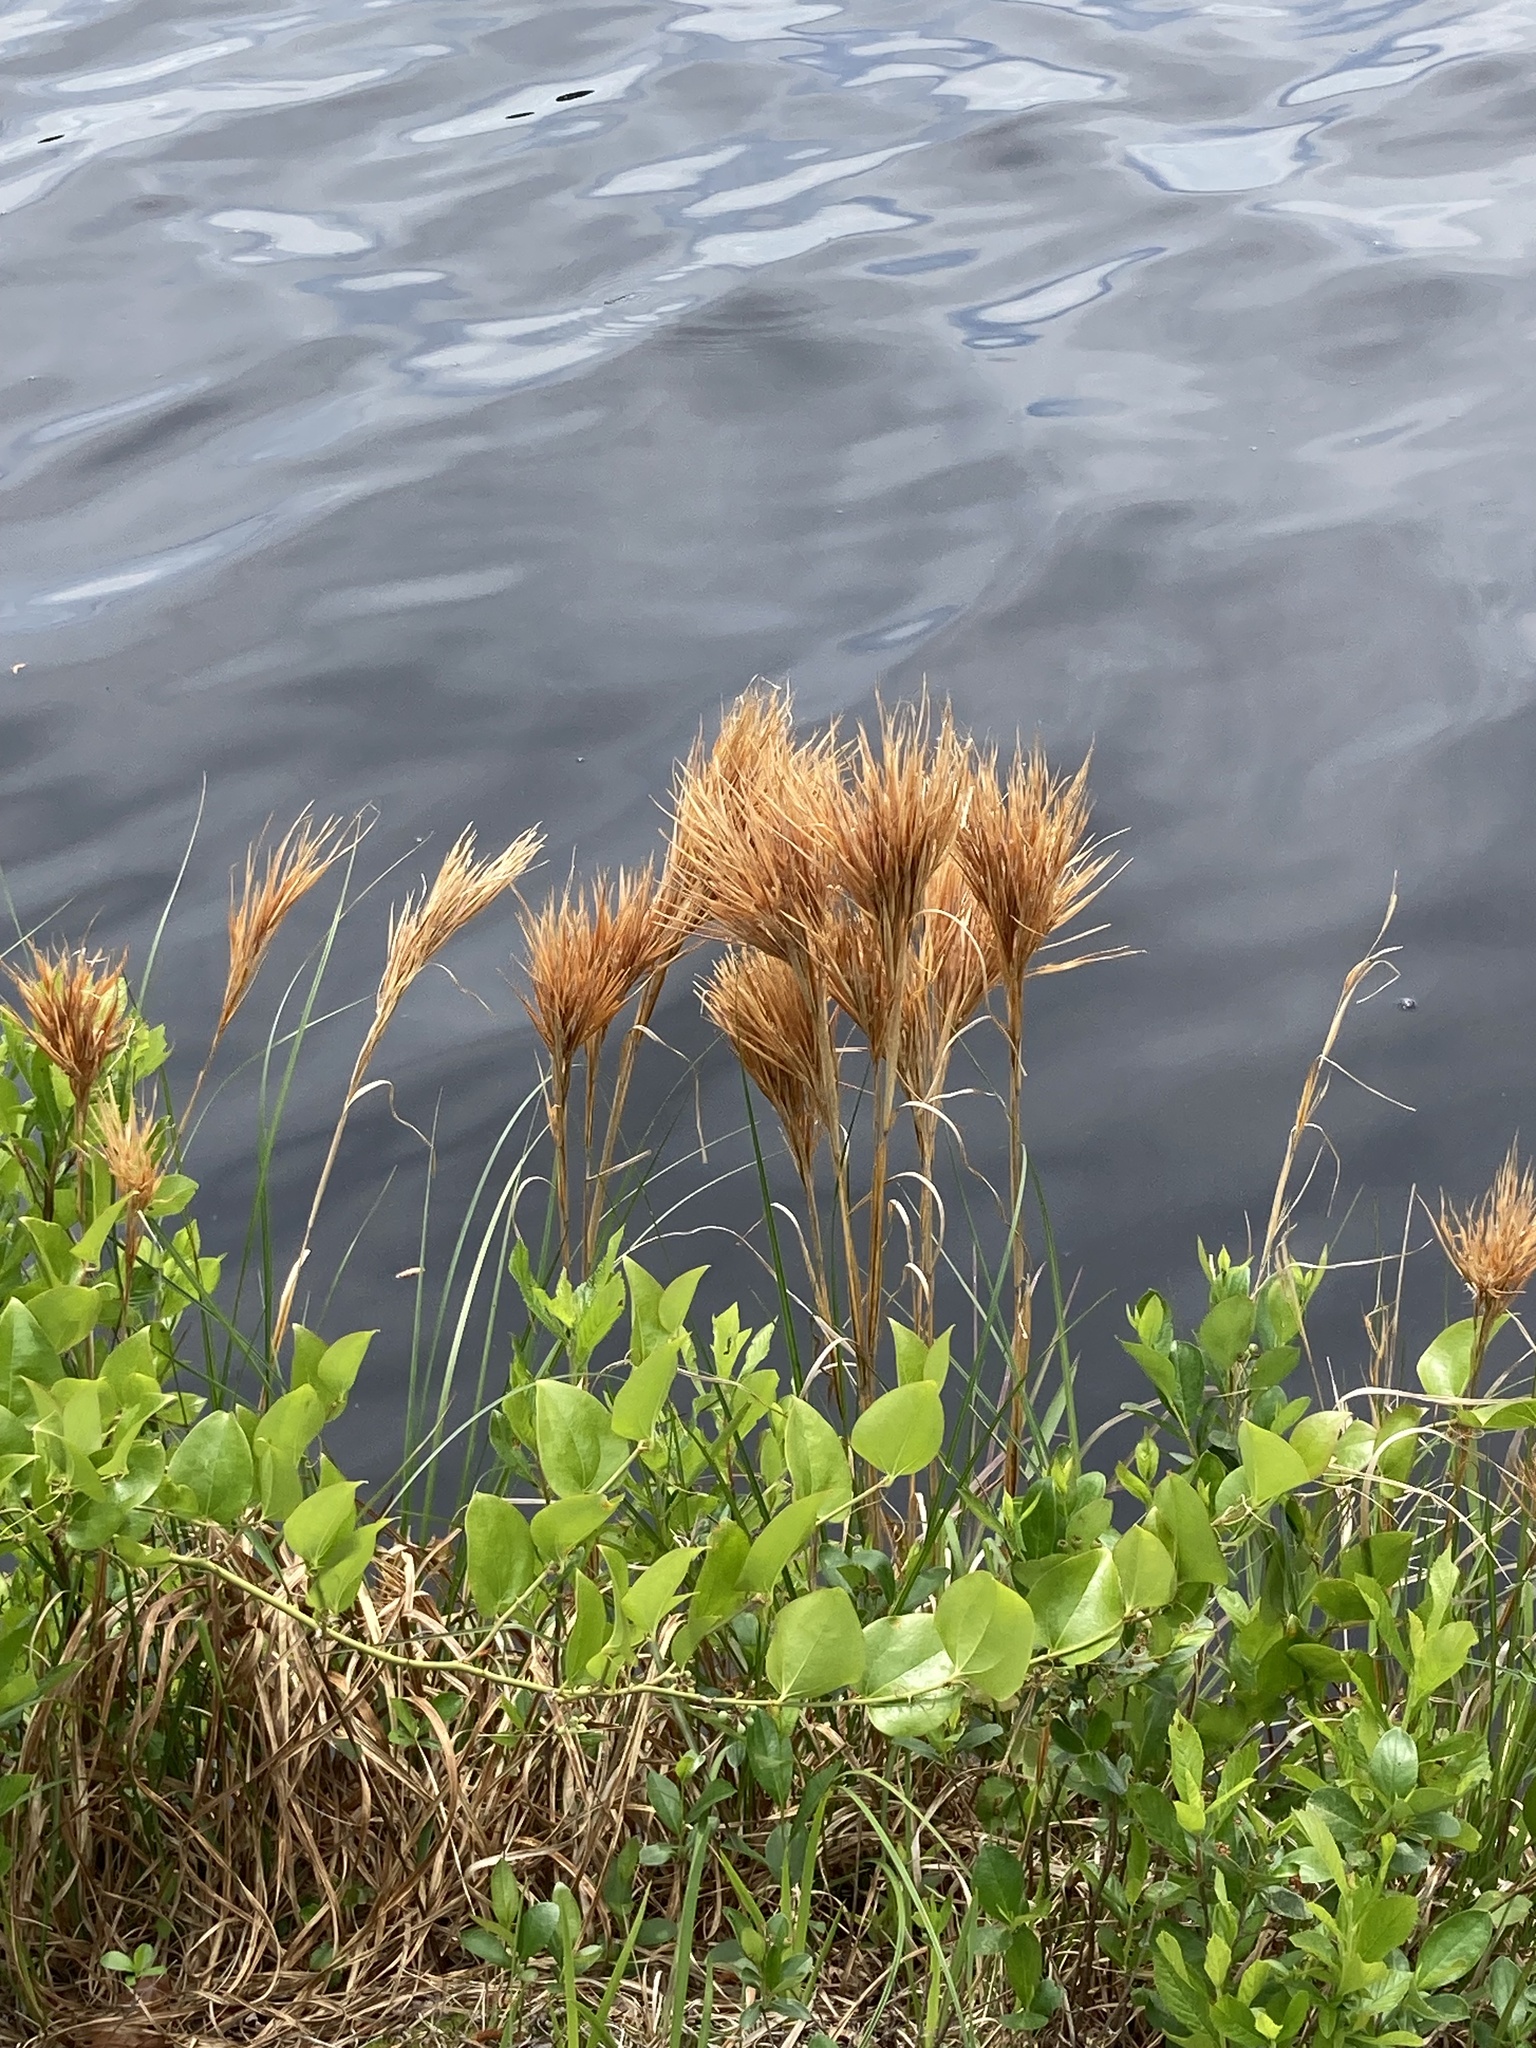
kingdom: Plantae
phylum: Tracheophyta
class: Liliopsida
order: Poales
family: Poaceae
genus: Andropogon
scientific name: Andropogon glomeratus
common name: Bushy beard grass
